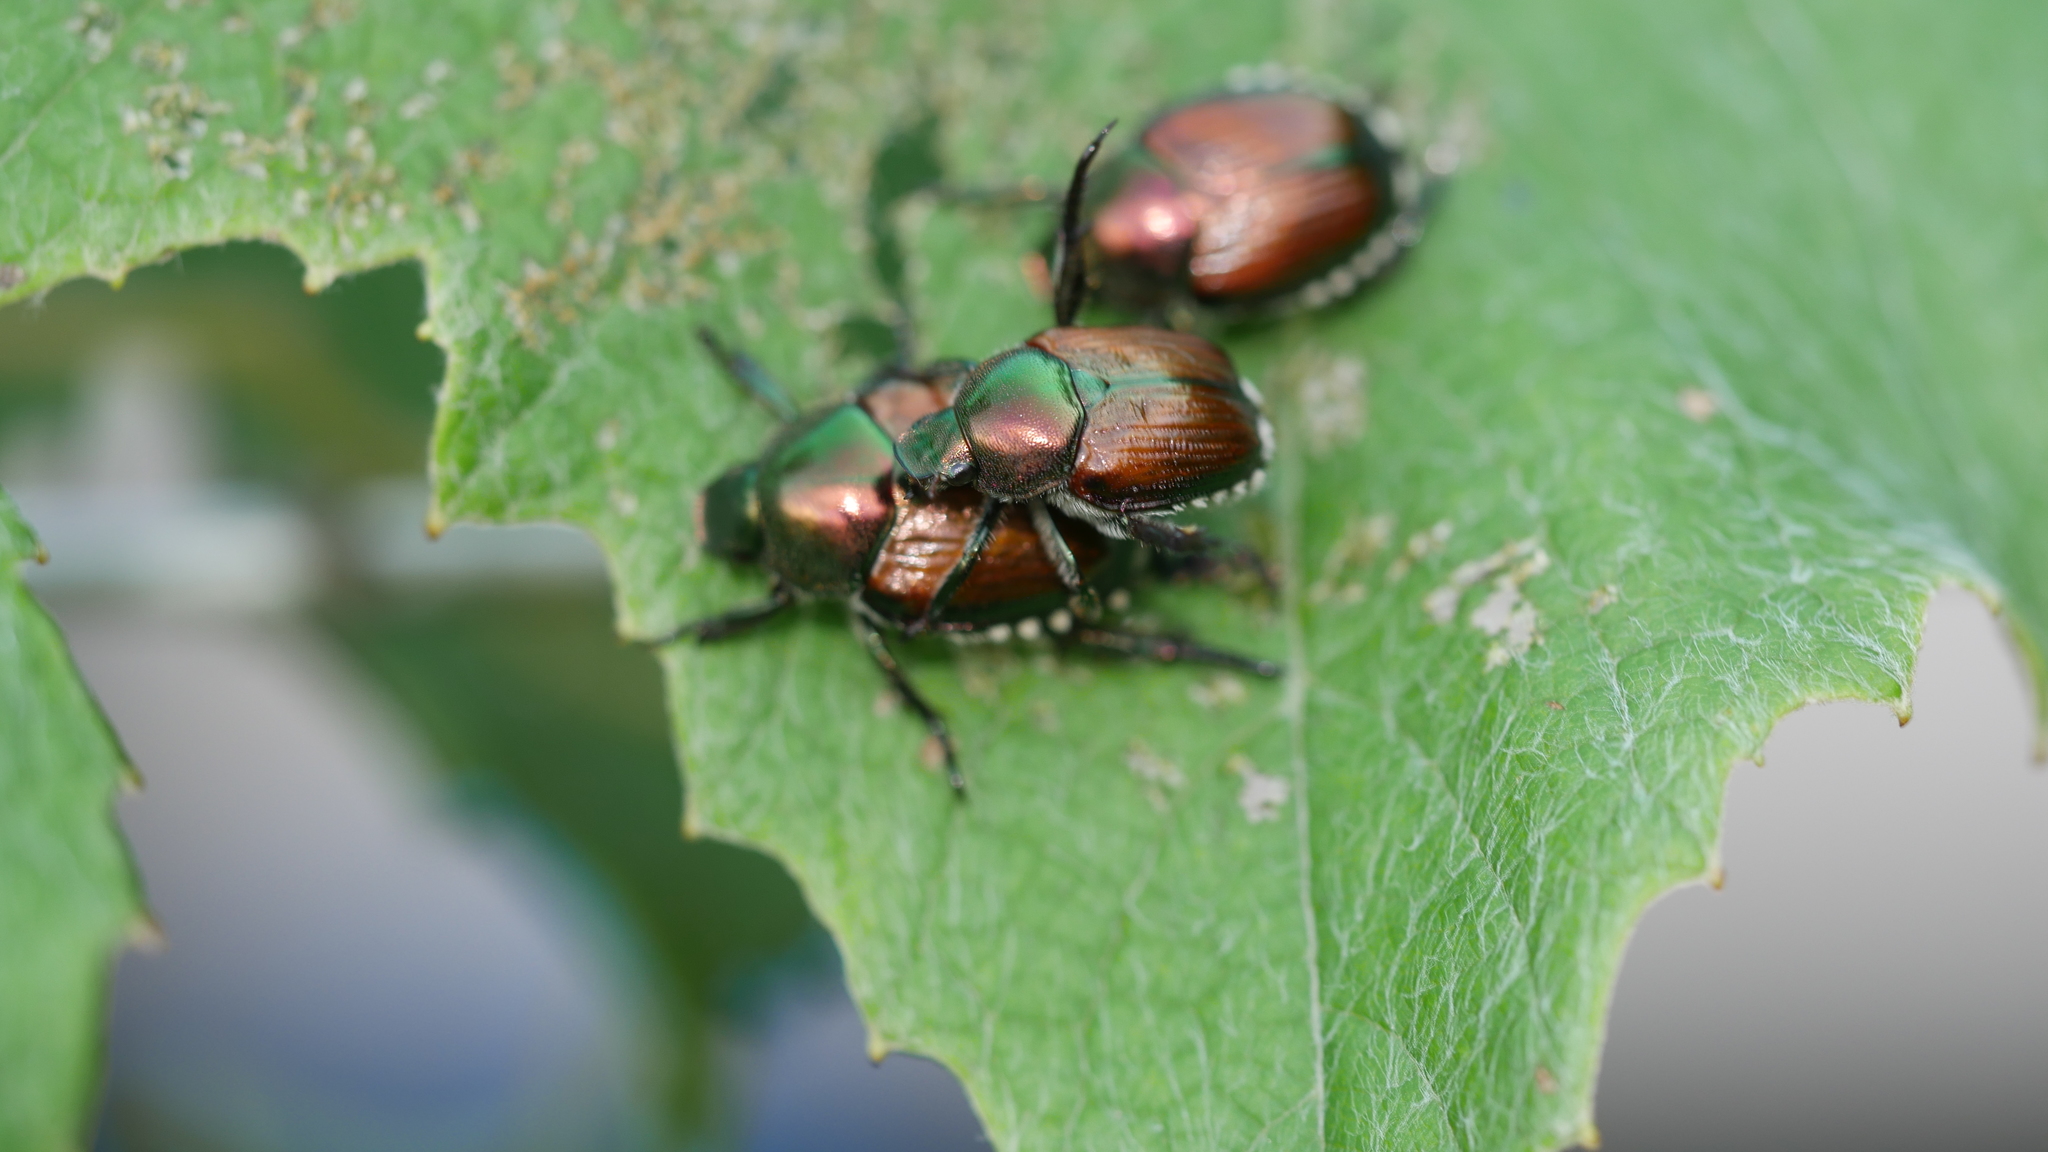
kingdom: Animalia
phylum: Arthropoda
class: Insecta
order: Coleoptera
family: Scarabaeidae
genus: Popillia
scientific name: Popillia japonica
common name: Japanese beetle
